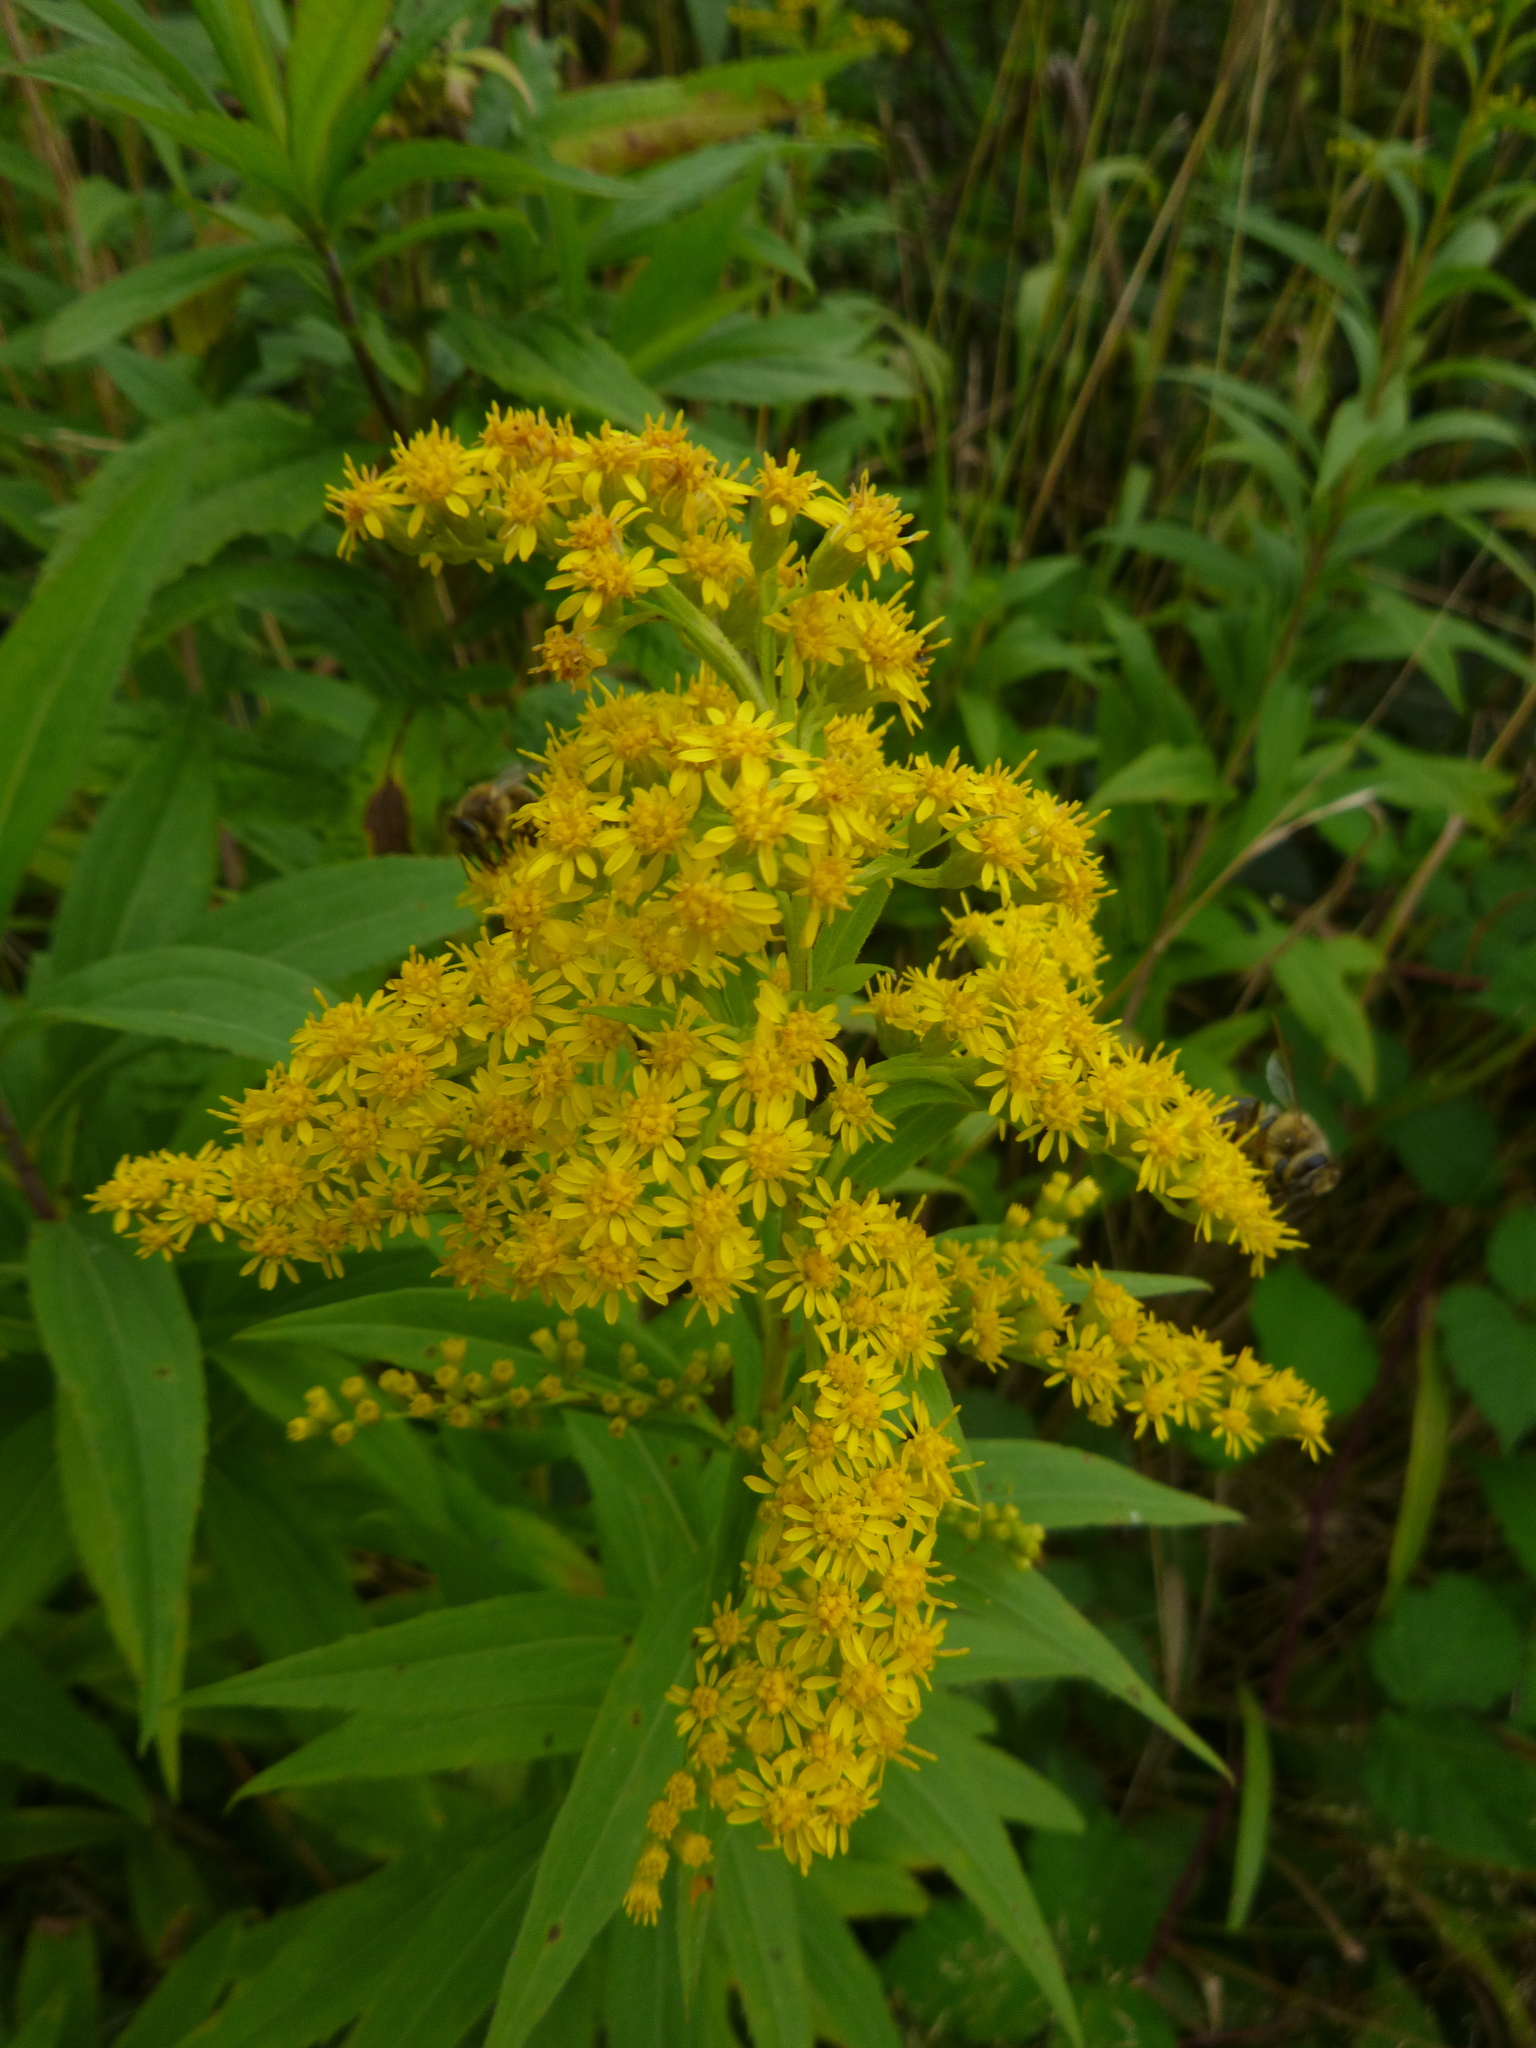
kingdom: Plantae
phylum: Tracheophyta
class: Magnoliopsida
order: Asterales
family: Asteraceae
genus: Solidago
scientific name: Solidago gigantea
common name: Giant goldenrod
